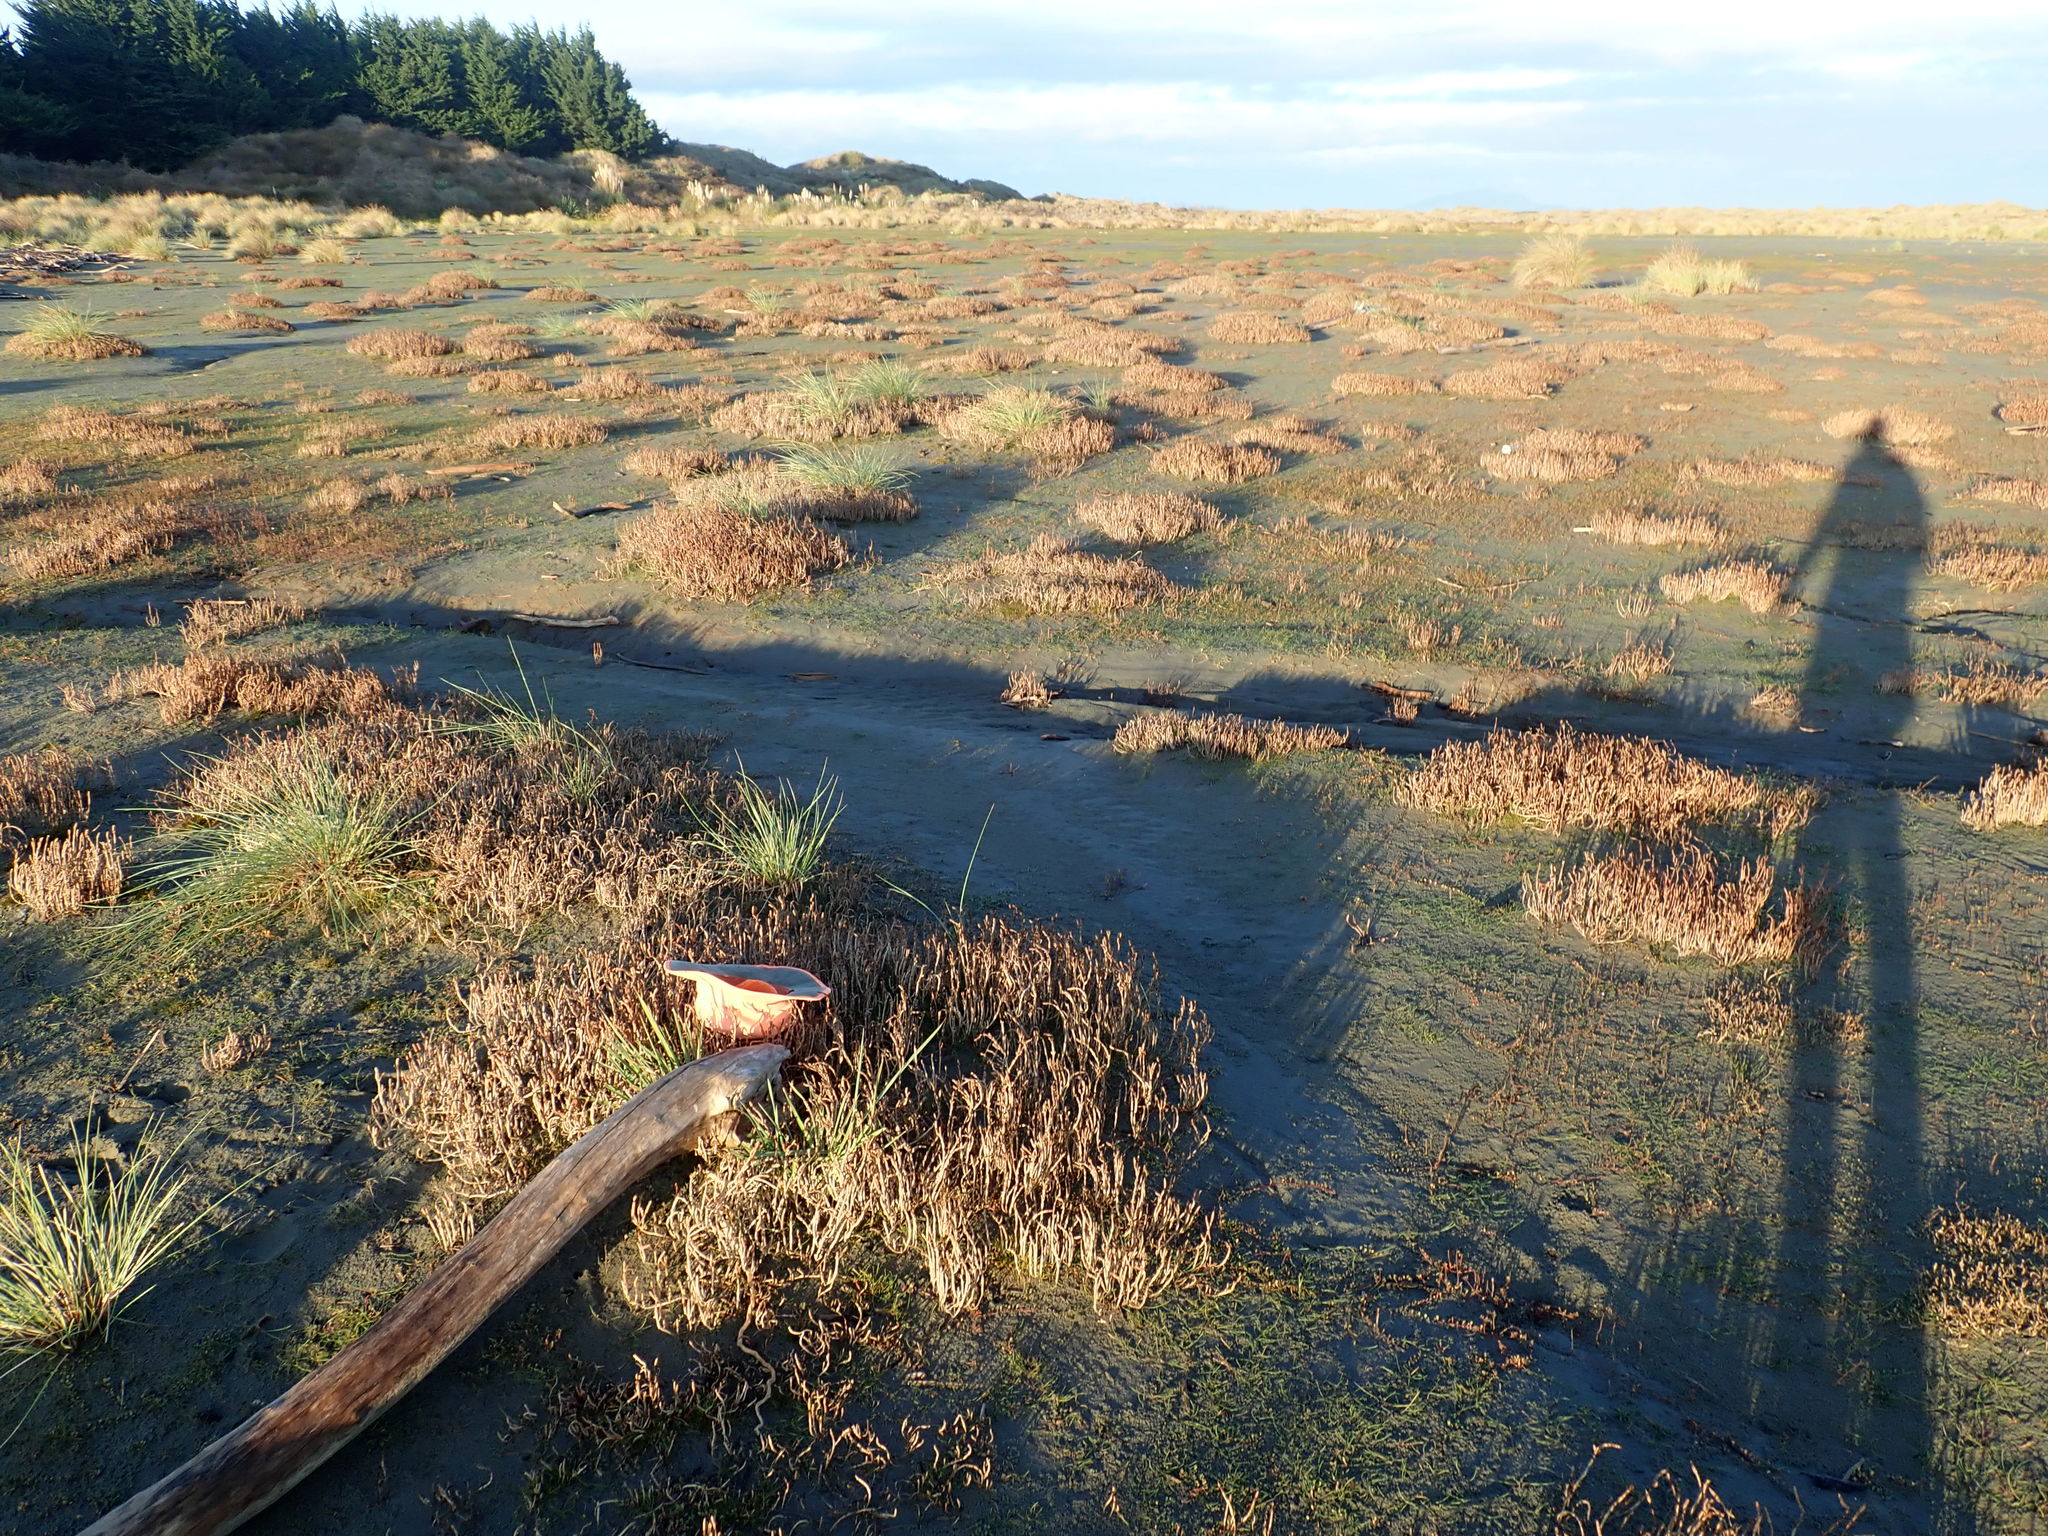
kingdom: Plantae
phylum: Tracheophyta
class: Magnoliopsida
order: Apiales
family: Apiaceae
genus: Lilaeopsis
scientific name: Lilaeopsis novae-zelandiae
